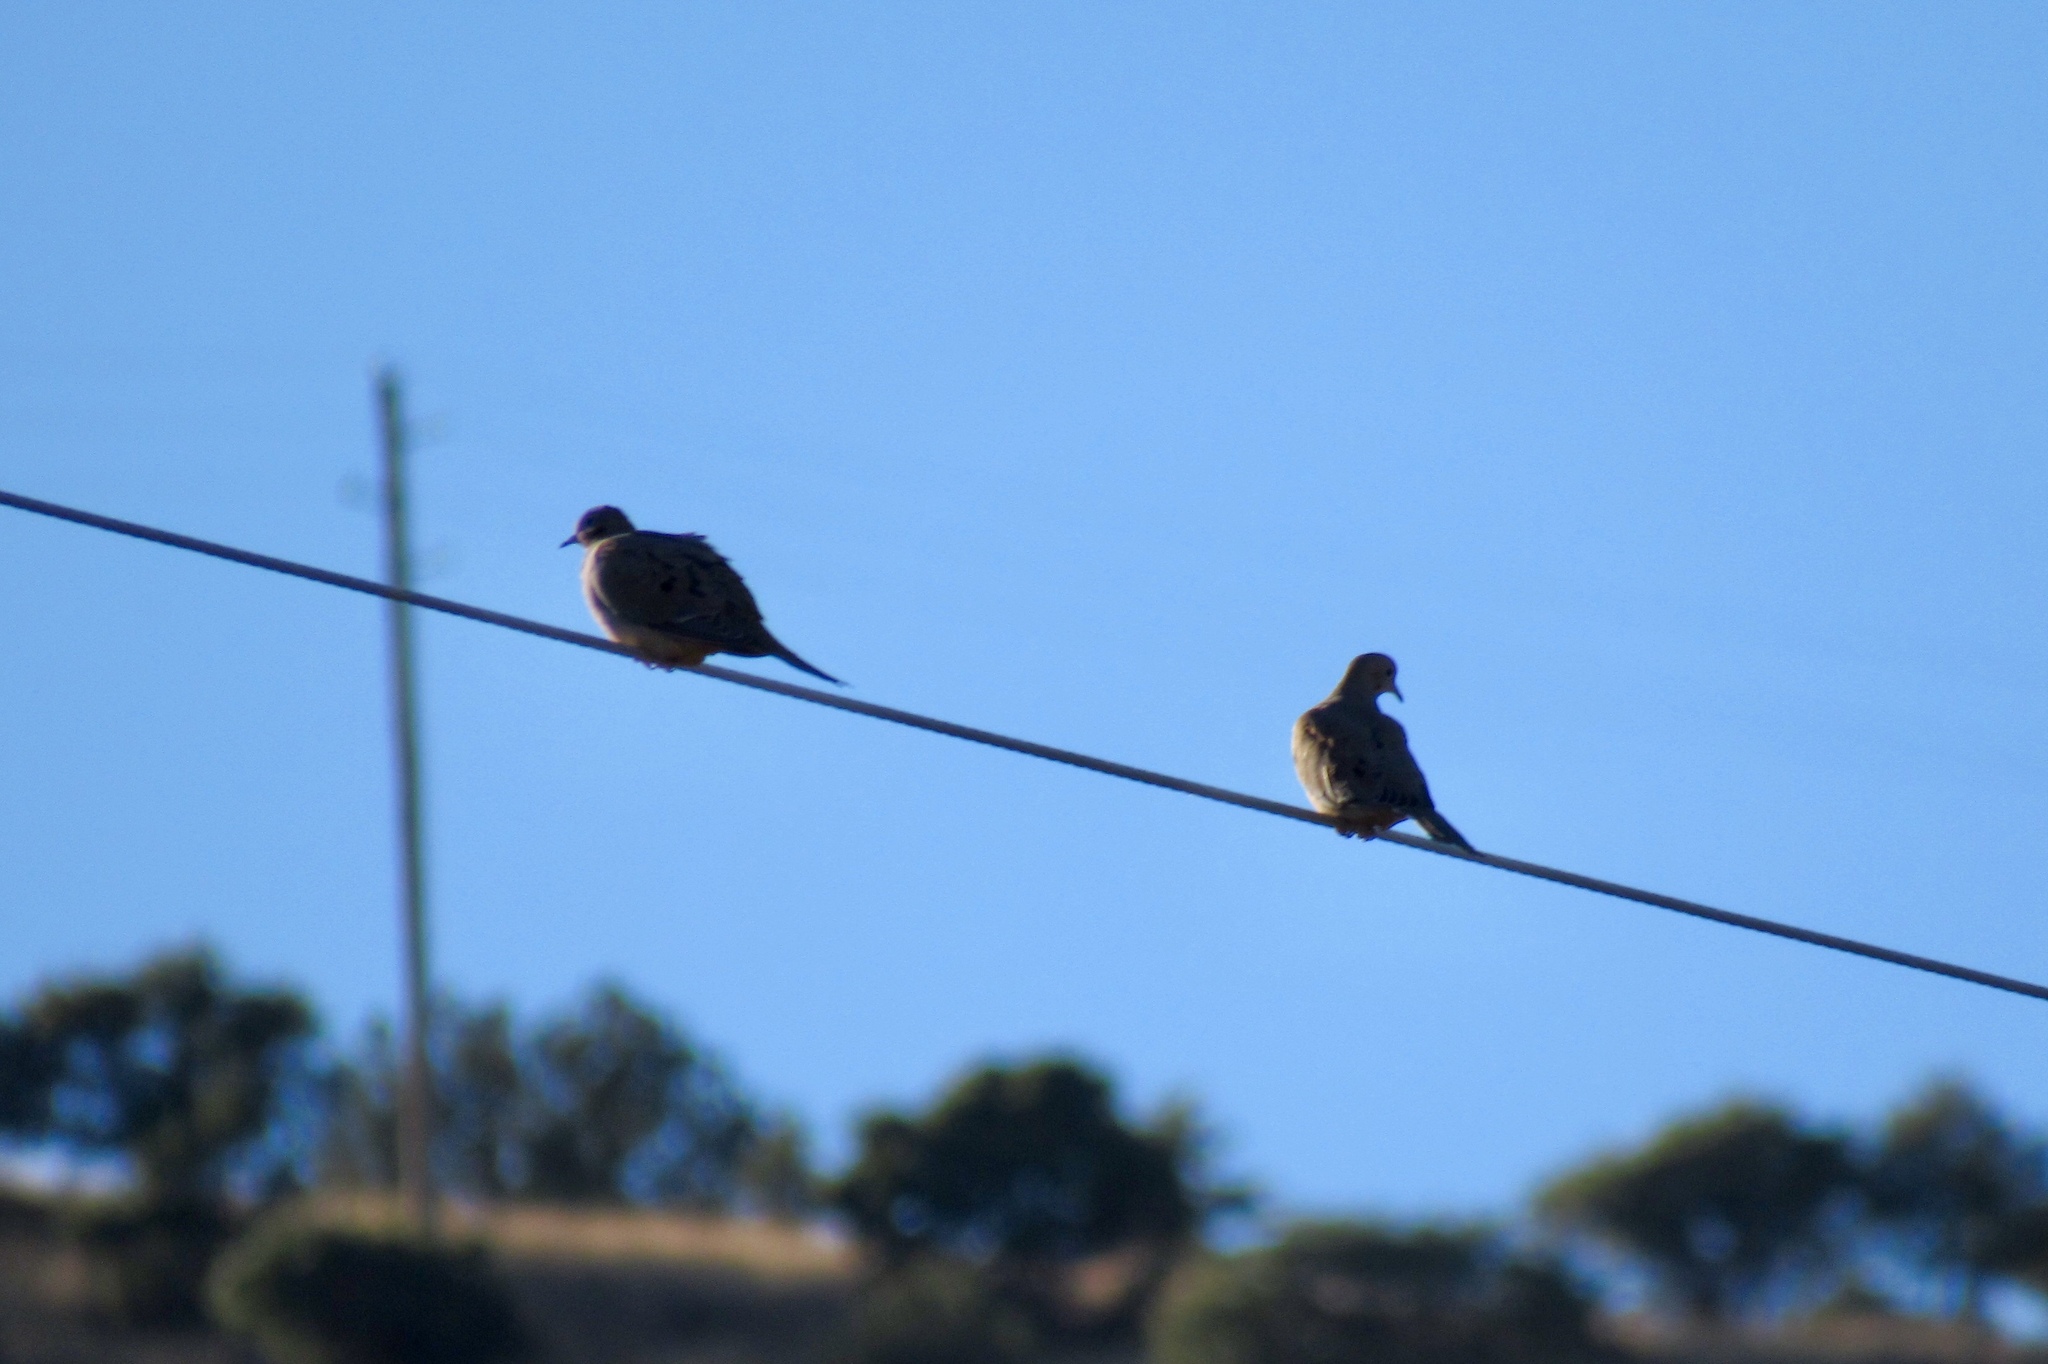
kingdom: Animalia
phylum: Chordata
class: Aves
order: Columbiformes
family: Columbidae
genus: Zenaida
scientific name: Zenaida macroura
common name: Mourning dove
